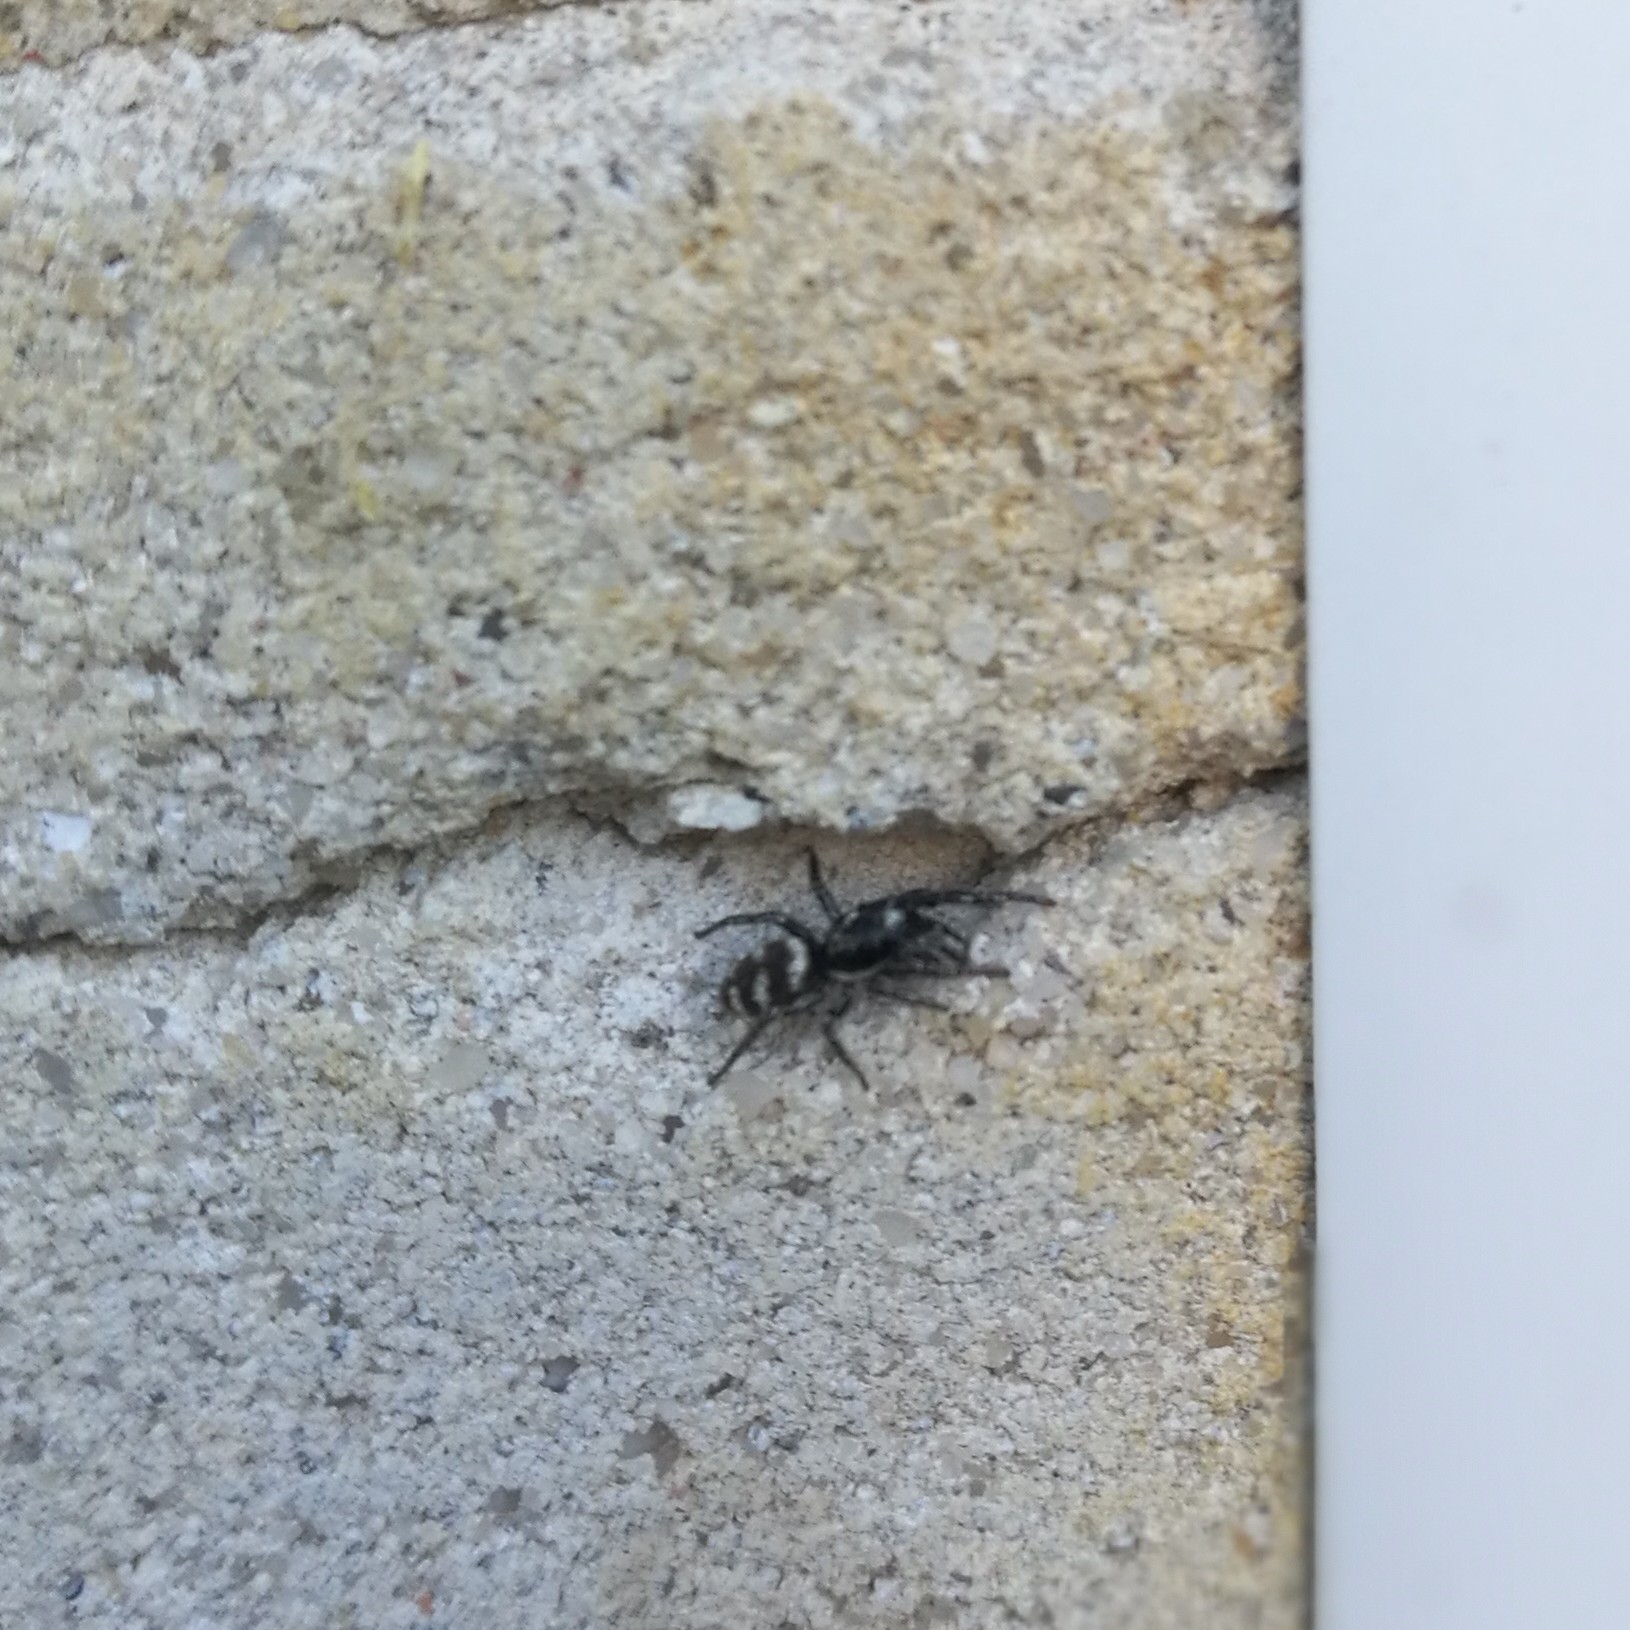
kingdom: Animalia
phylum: Arthropoda
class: Arachnida
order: Araneae
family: Salticidae
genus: Salticus
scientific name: Salticus scenicus
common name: Zebra jumper
